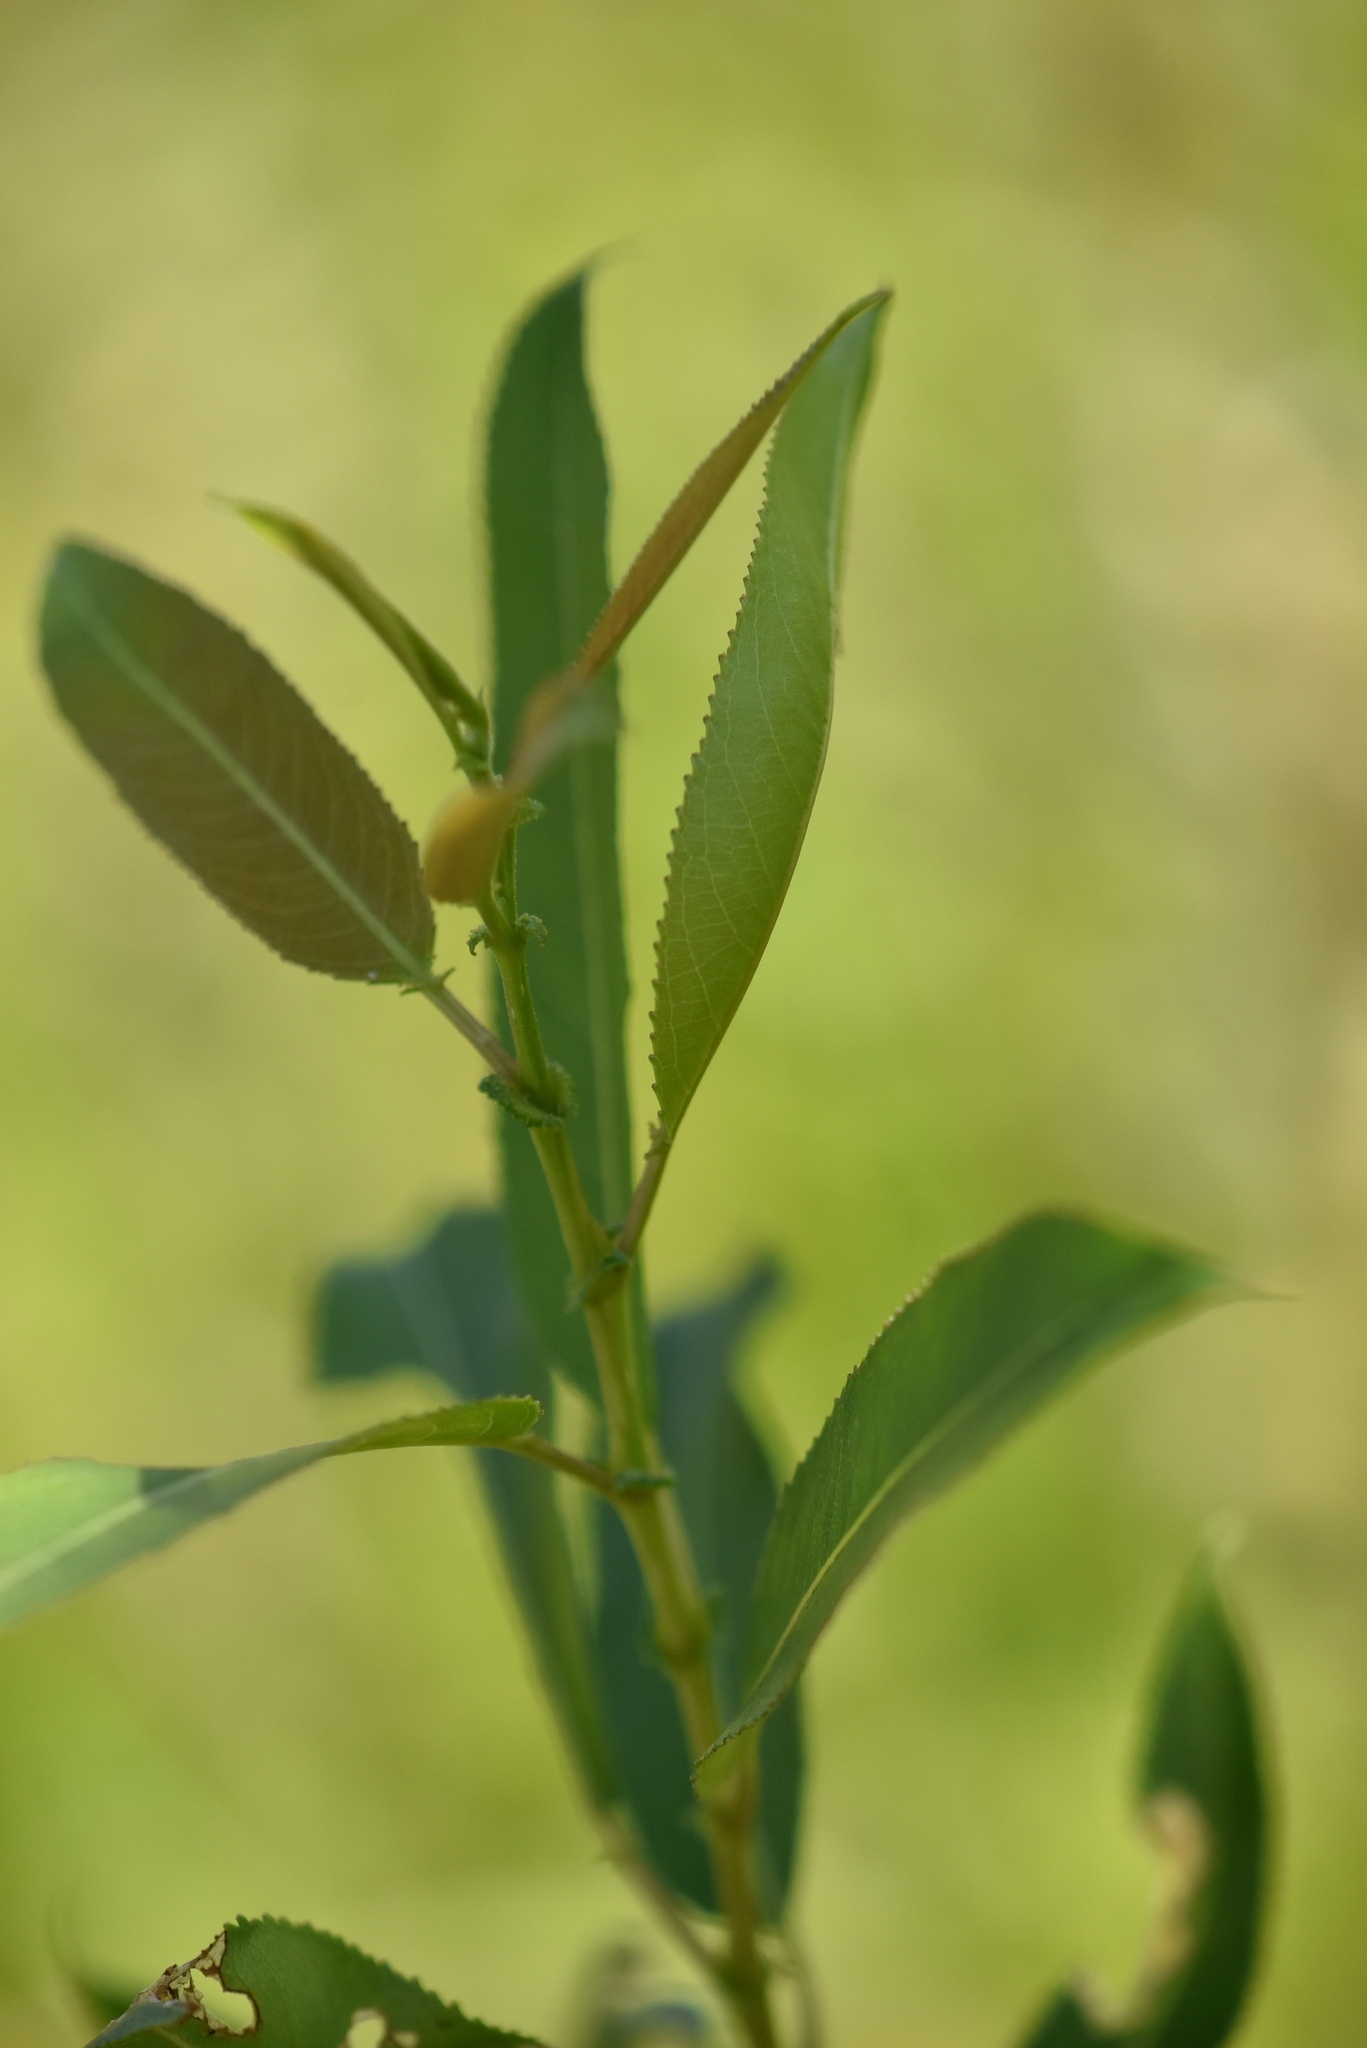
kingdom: Plantae
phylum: Tracheophyta
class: Magnoliopsida
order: Malpighiales
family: Salicaceae
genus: Salix
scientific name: Salix triandra
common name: Almond willow
